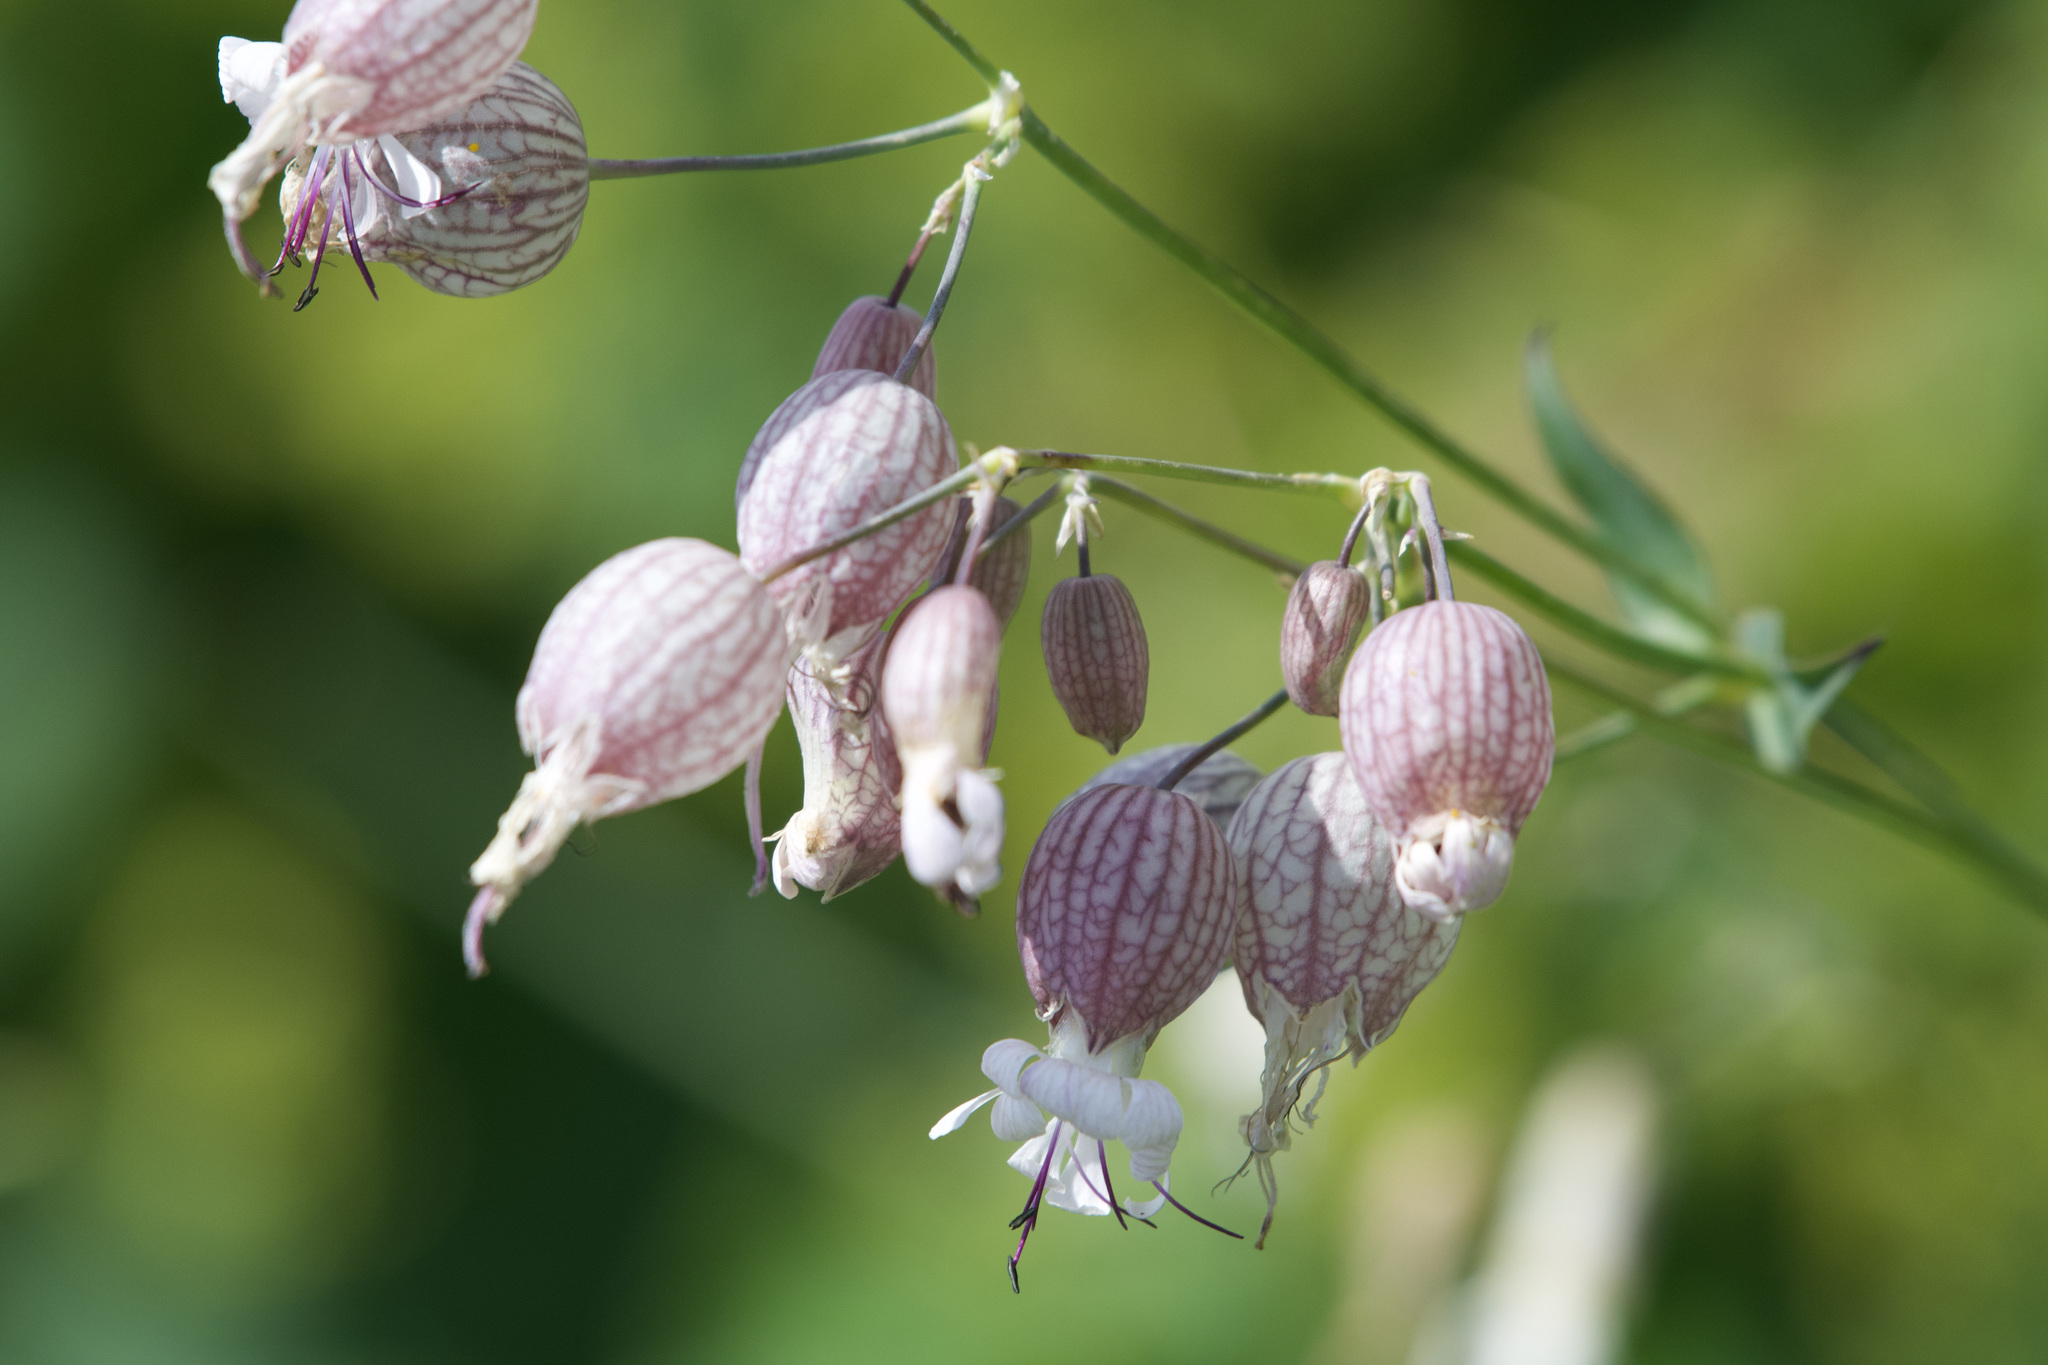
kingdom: Plantae
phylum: Tracheophyta
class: Magnoliopsida
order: Caryophyllales
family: Caryophyllaceae
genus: Silene
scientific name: Silene vulgaris
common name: Bladder campion
